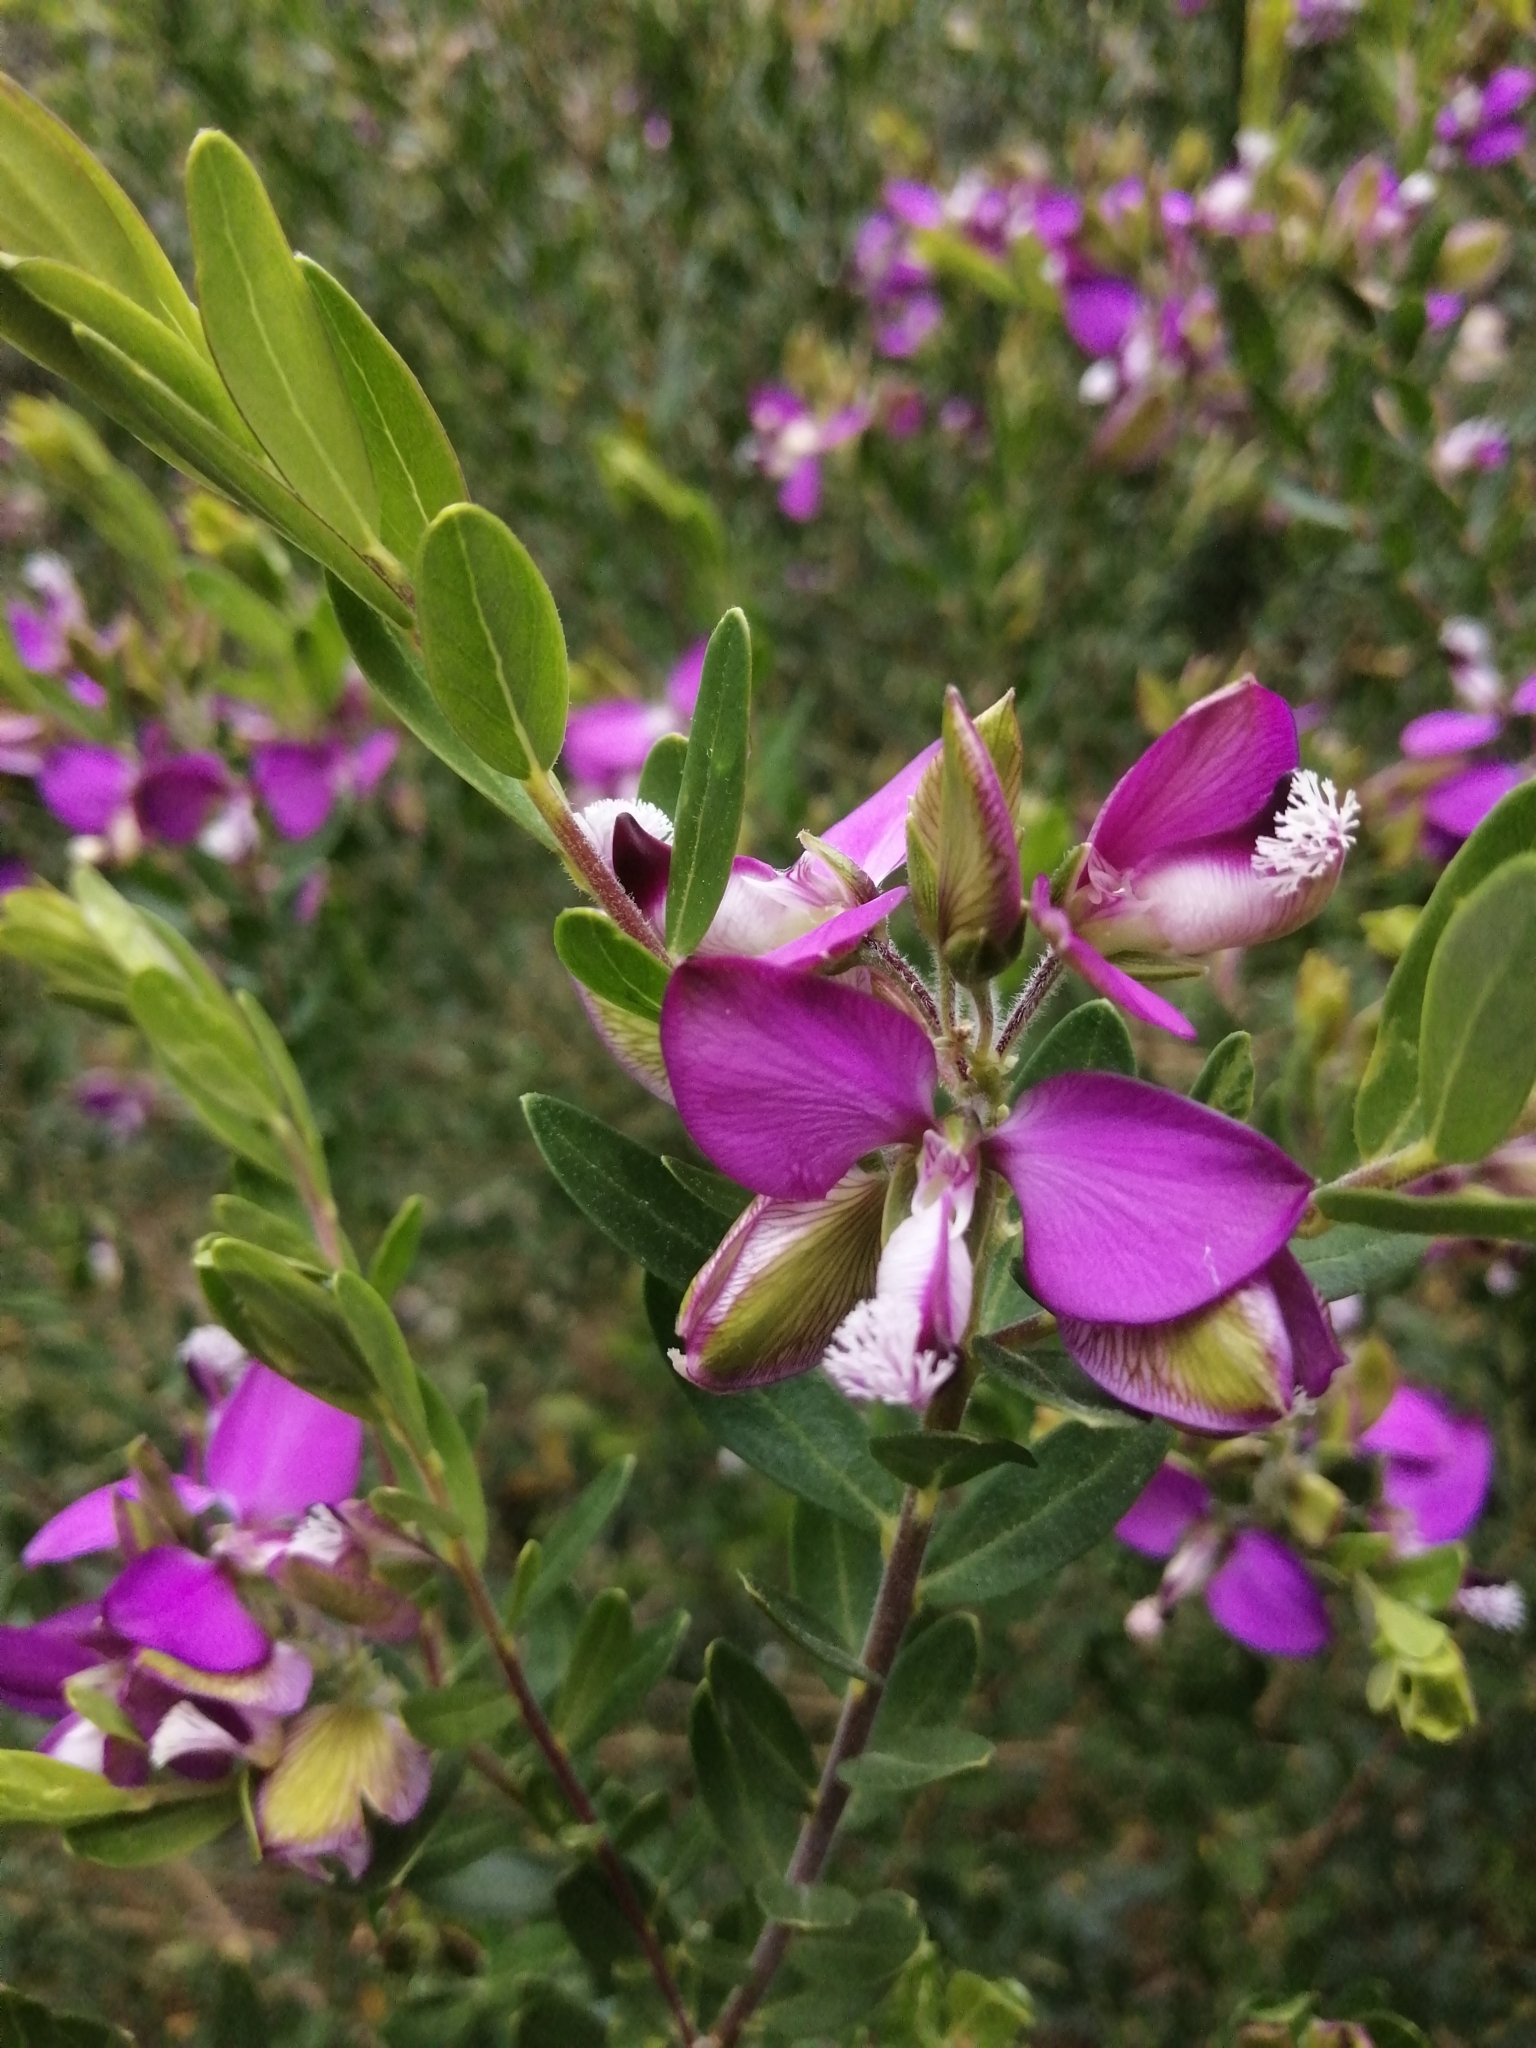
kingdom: Plantae
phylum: Tracheophyta
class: Magnoliopsida
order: Fabales
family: Polygalaceae
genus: Polygala
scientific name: Polygala myrtifolia
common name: Myrtle-leaf milkwort
